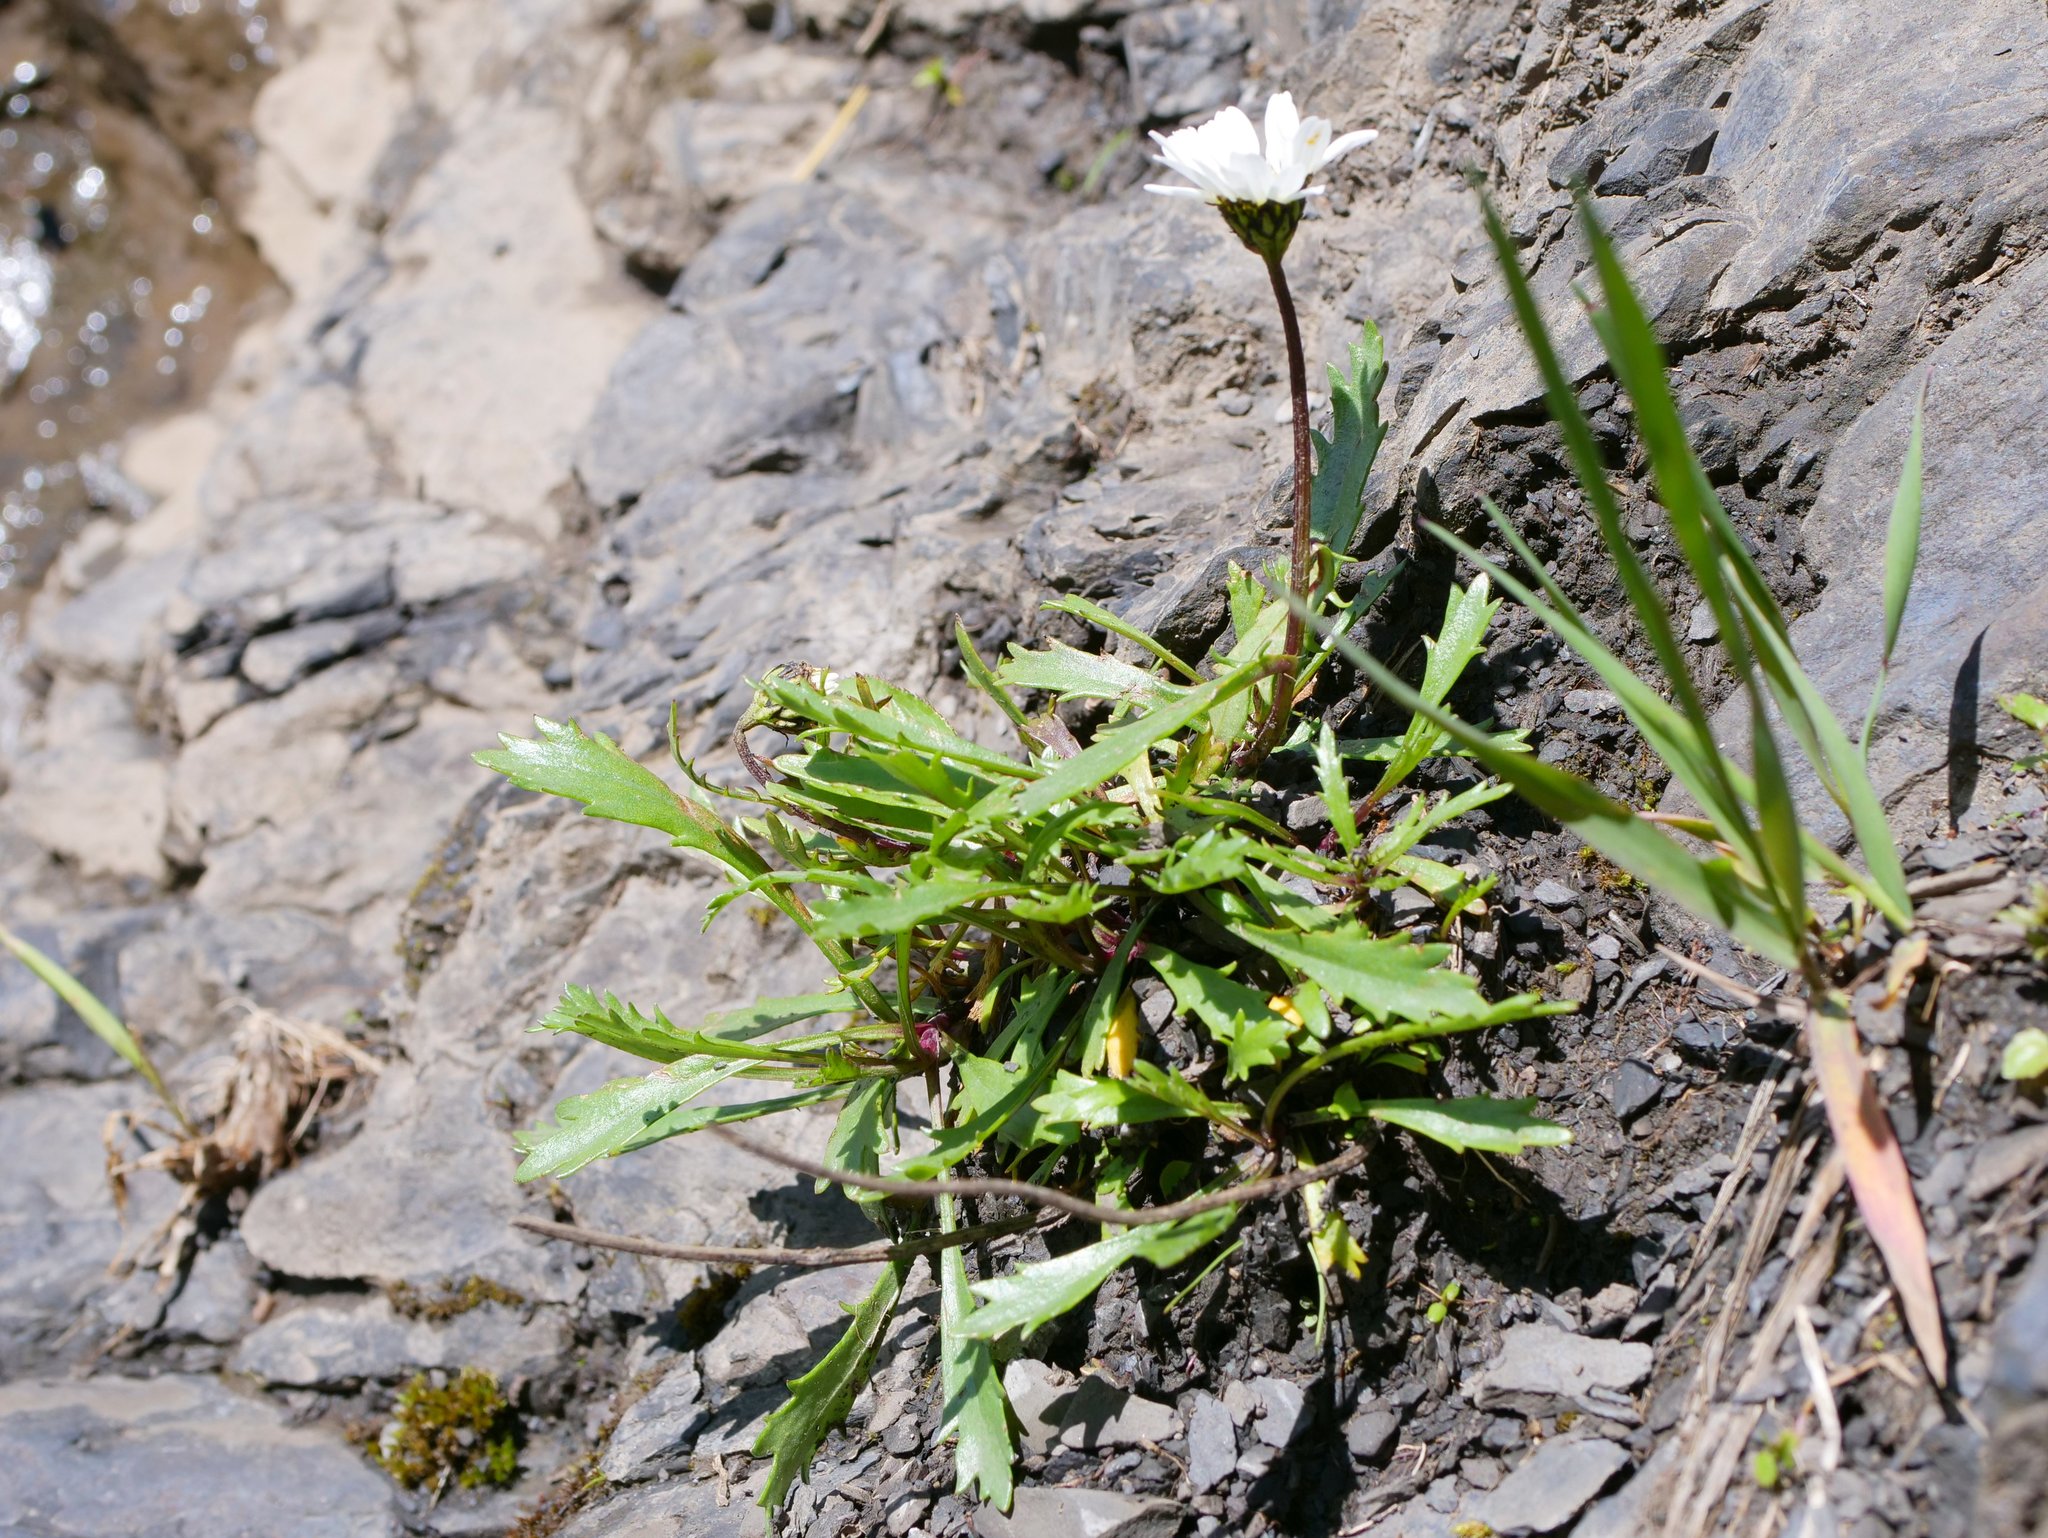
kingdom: Plantae
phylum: Tracheophyta
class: Magnoliopsida
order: Asterales
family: Asteraceae
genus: Leucanthemum
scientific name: Leucanthemum halleri
